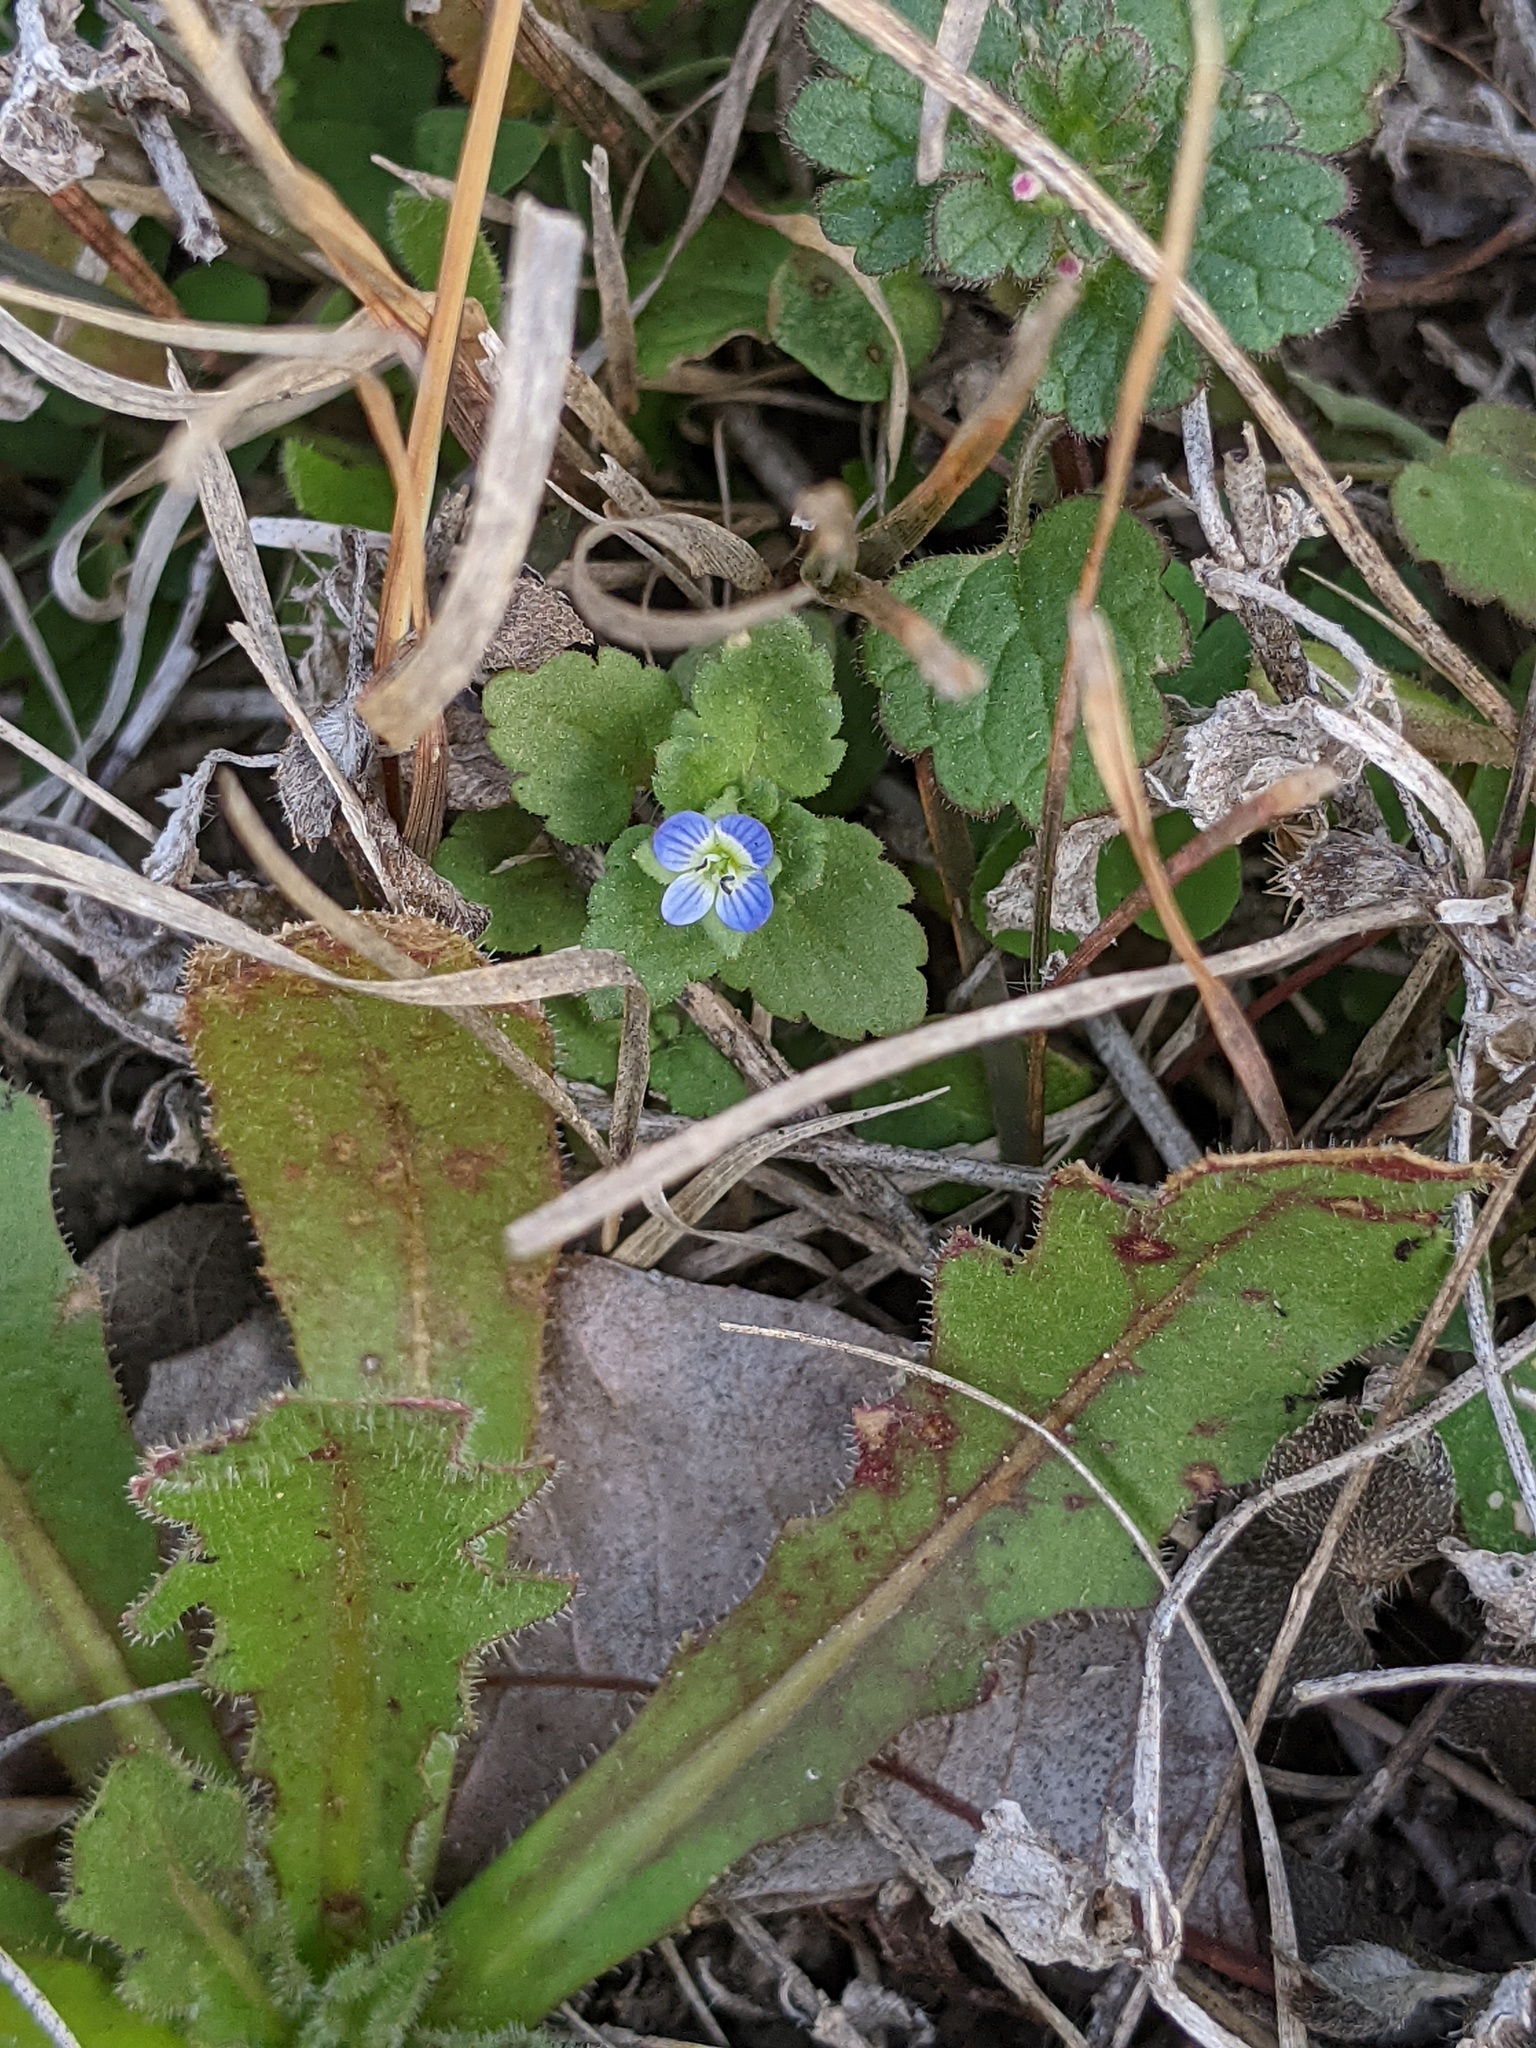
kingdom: Plantae
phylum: Tracheophyta
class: Magnoliopsida
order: Lamiales
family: Plantaginaceae
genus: Veronica
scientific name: Veronica polita
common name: Grey field-speedwell
